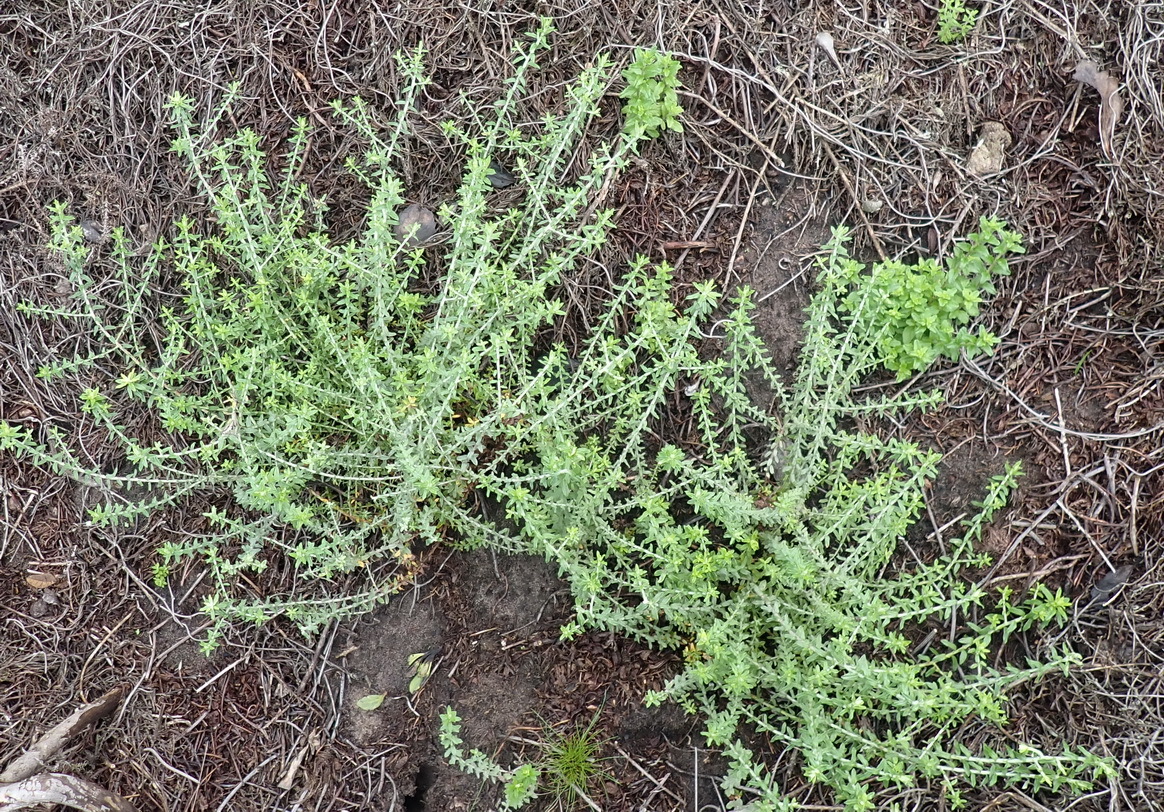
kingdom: Plantae
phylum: Tracheophyta
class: Magnoliopsida
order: Asterales
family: Asteraceae
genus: Helichrysum
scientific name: Helichrysum cymosum
